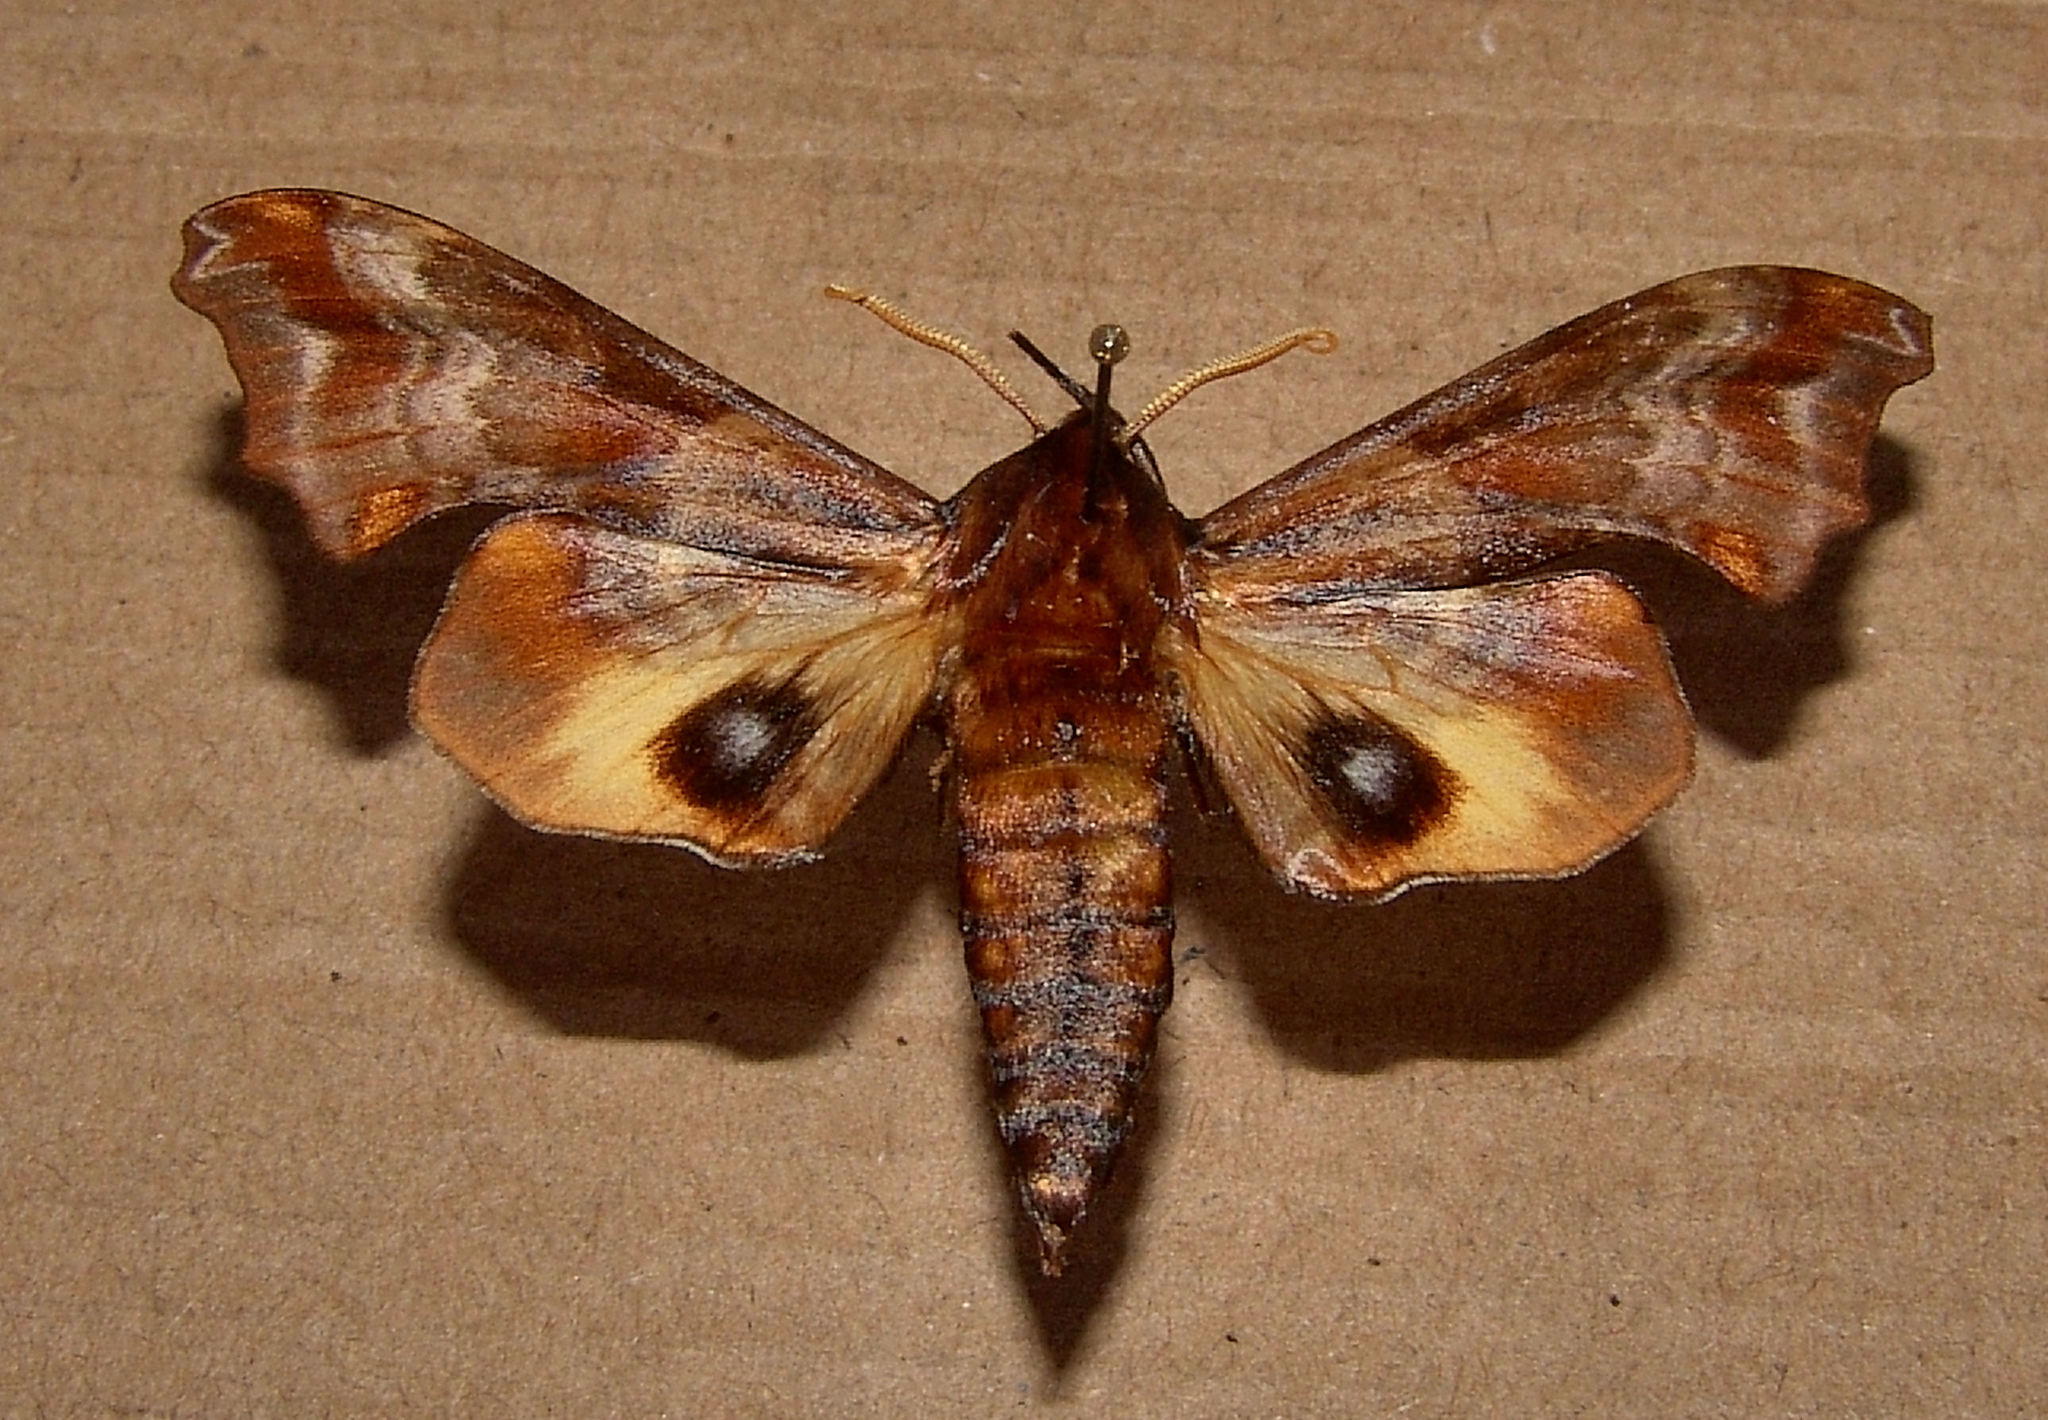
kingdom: Animalia
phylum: Arthropoda
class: Insecta
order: Lepidoptera
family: Sphingidae
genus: Paonias
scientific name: Paonias myops
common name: Small-eyed sphinx
